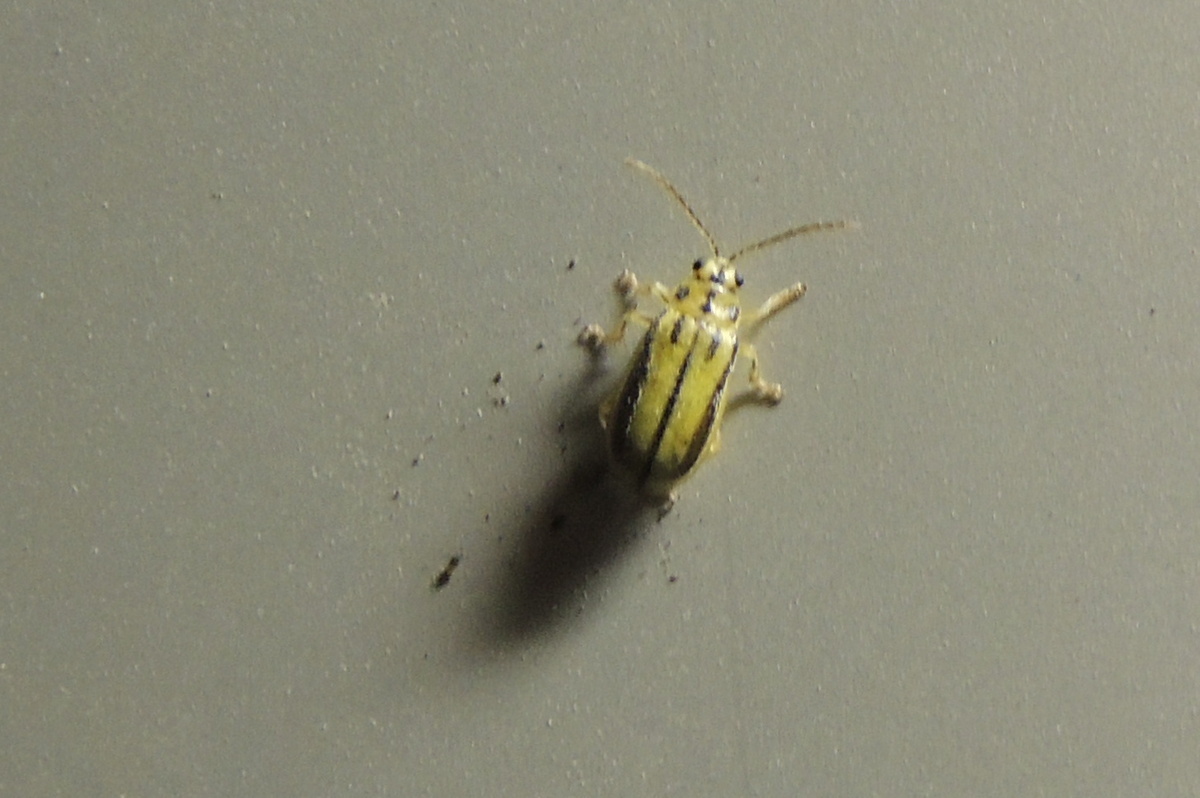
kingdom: Animalia
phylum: Arthropoda
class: Insecta
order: Coleoptera
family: Chrysomelidae
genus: Xanthogaleruca
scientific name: Xanthogaleruca luteola
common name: Elm leaf beetle
